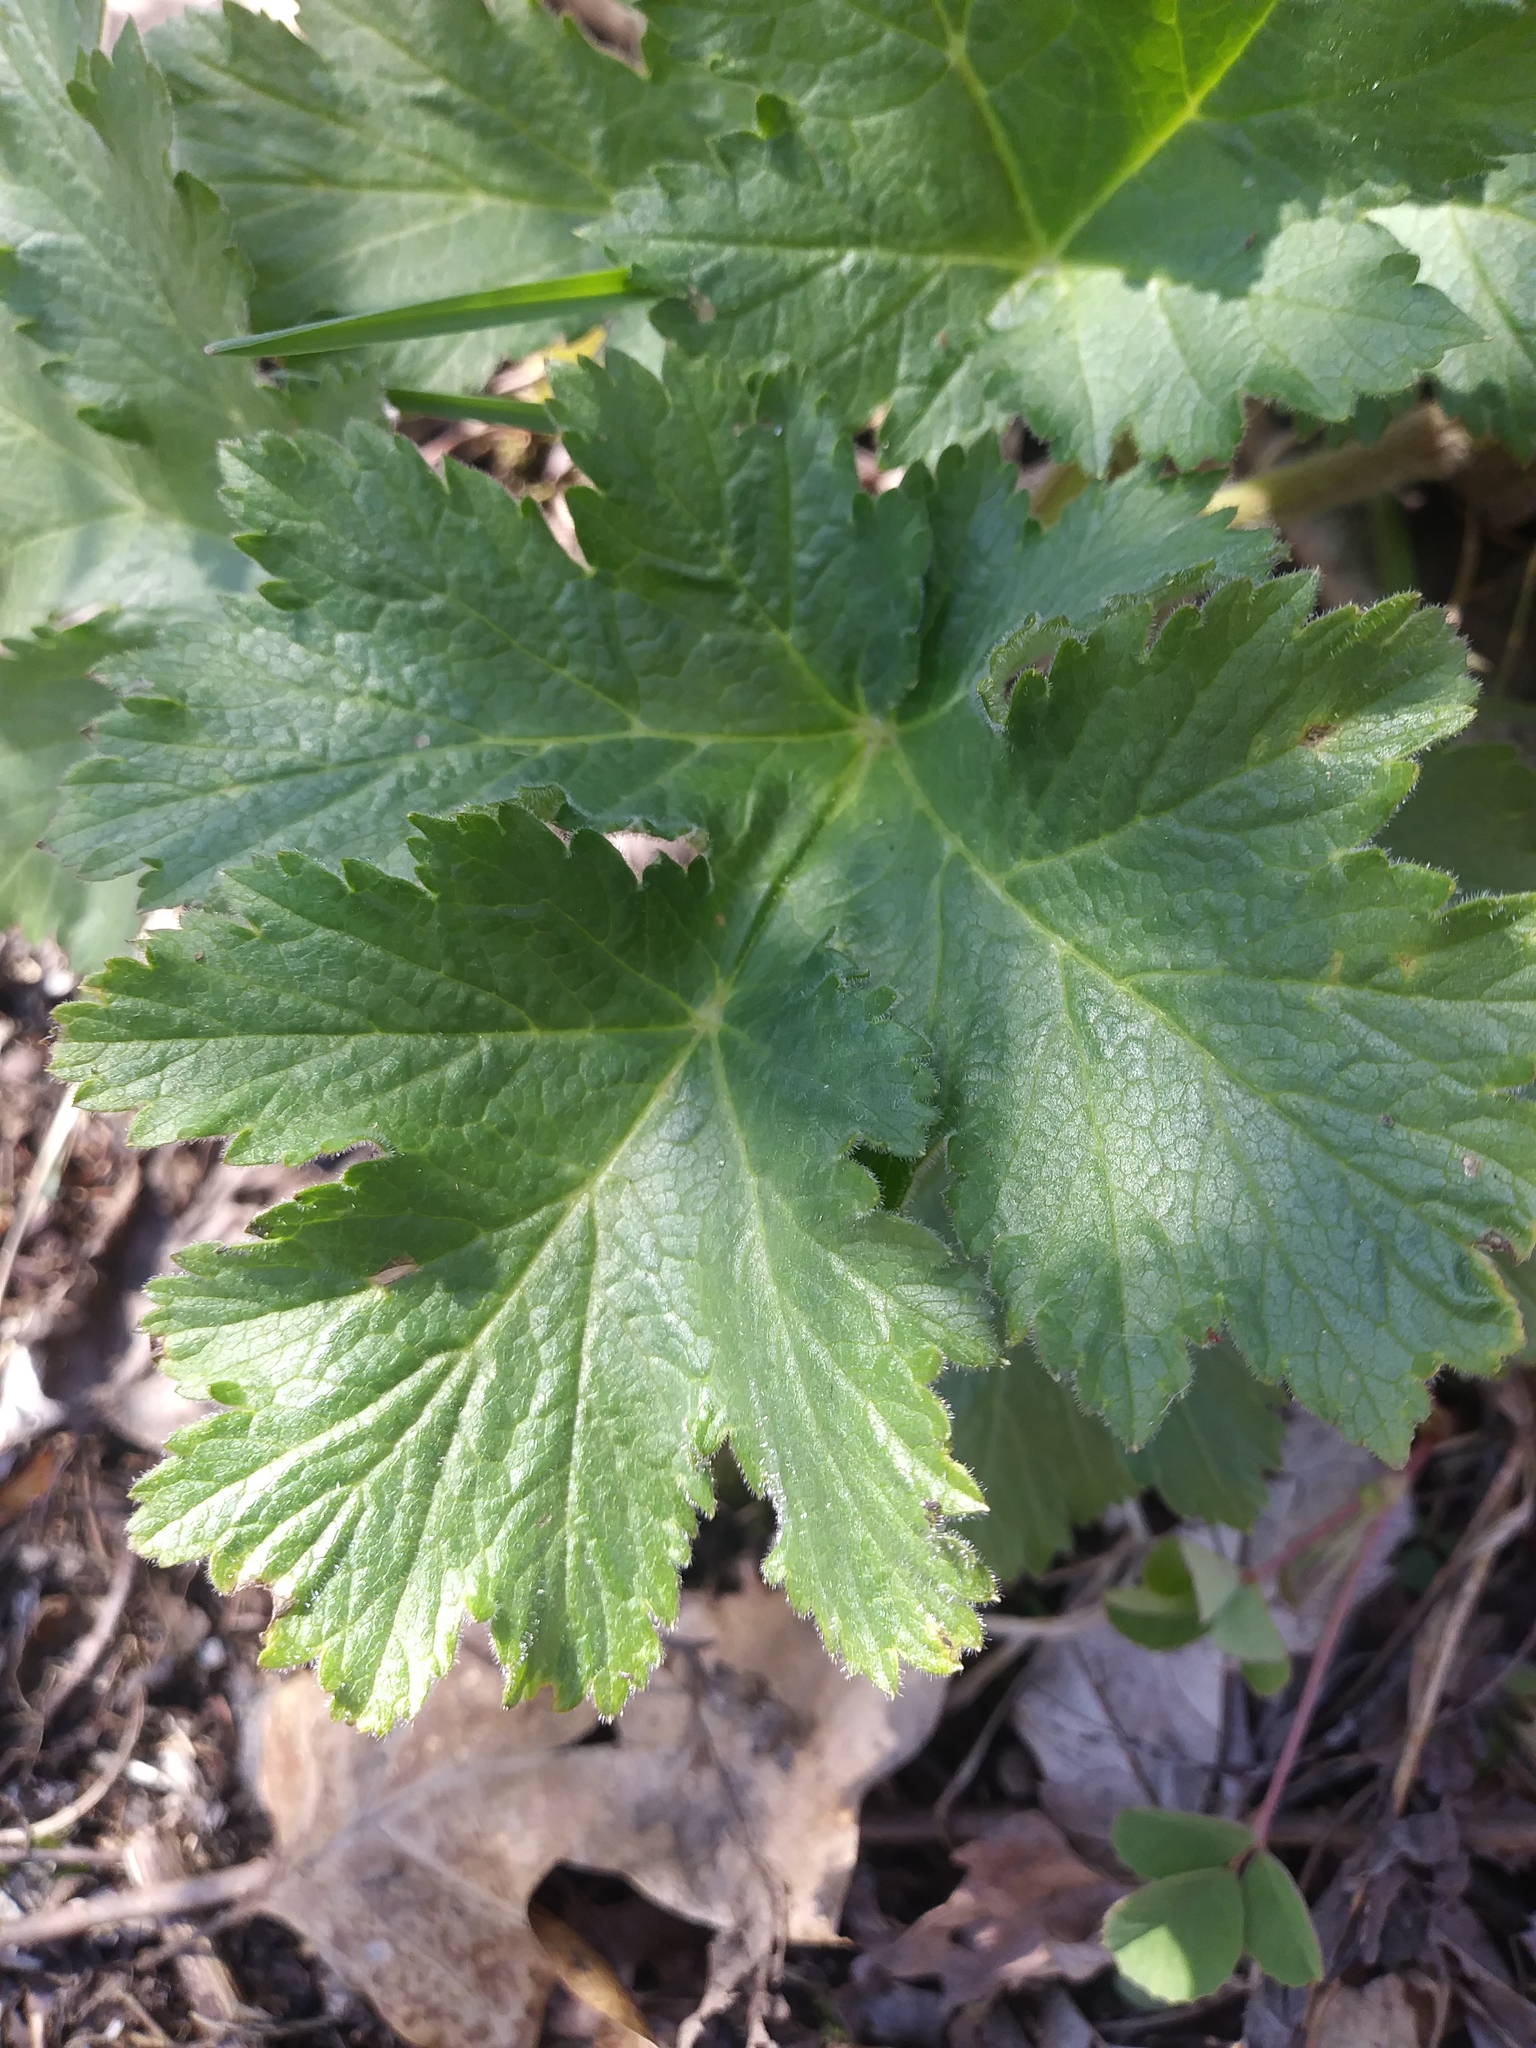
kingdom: Plantae
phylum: Tracheophyta
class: Magnoliopsida
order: Apiales
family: Apiaceae
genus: Heracleum
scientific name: Heracleum maximum
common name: American cow parsnip
